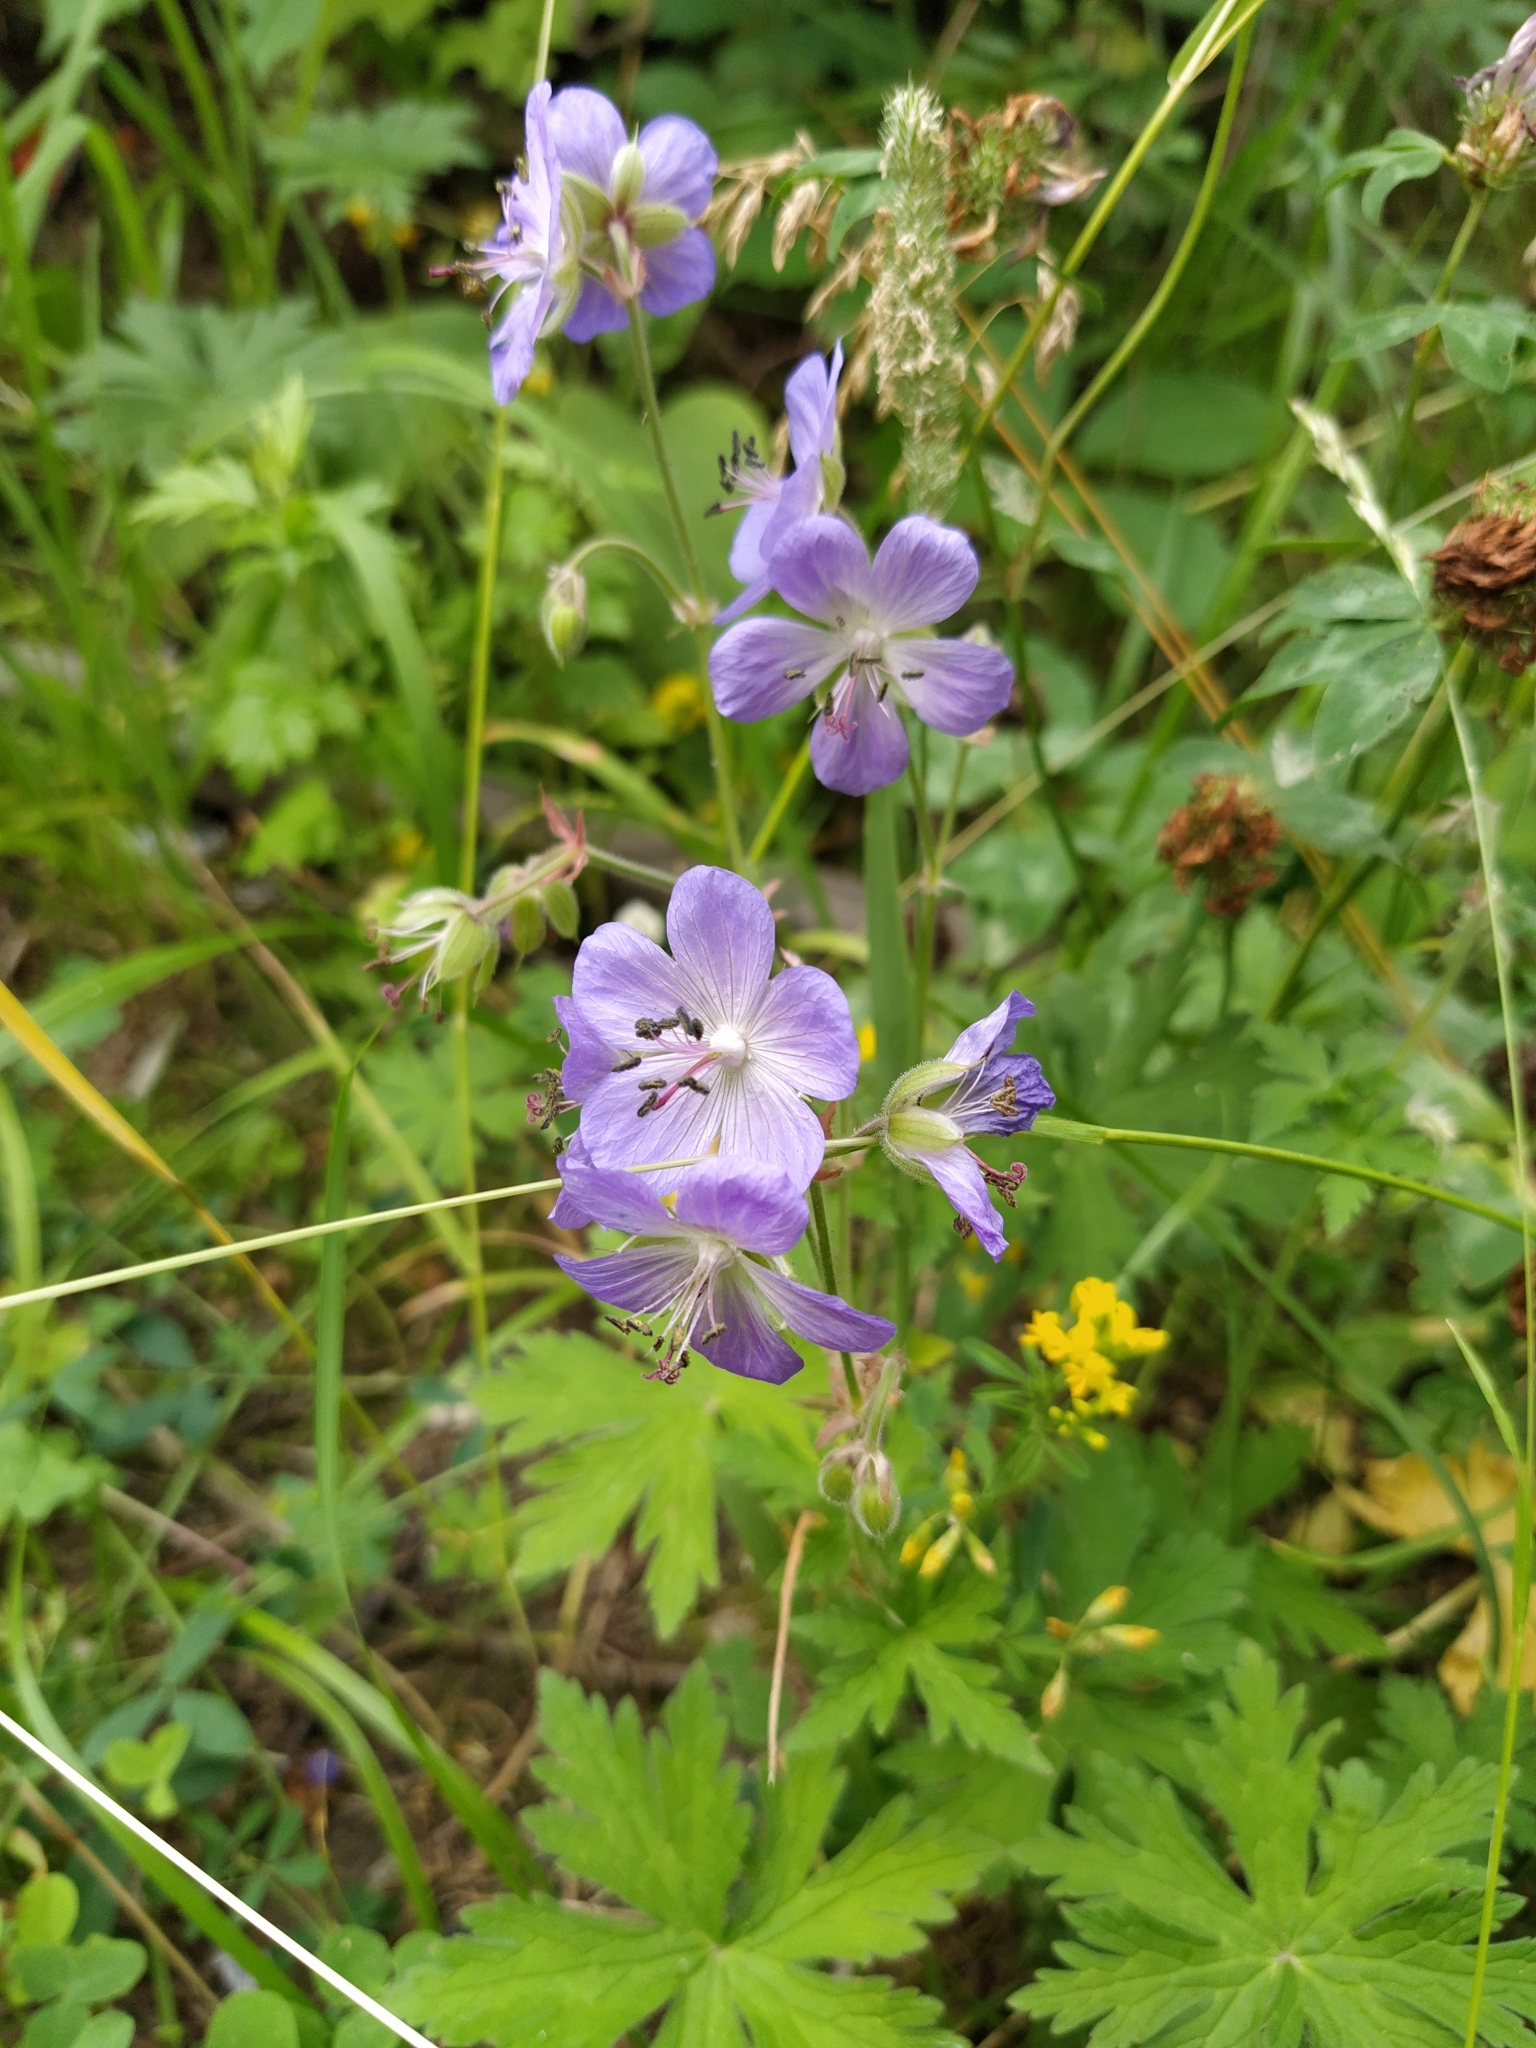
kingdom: Plantae
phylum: Tracheophyta
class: Magnoliopsida
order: Geraniales
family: Geraniaceae
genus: Geranium
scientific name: Geranium pratense
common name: Meadow crane's-bill
